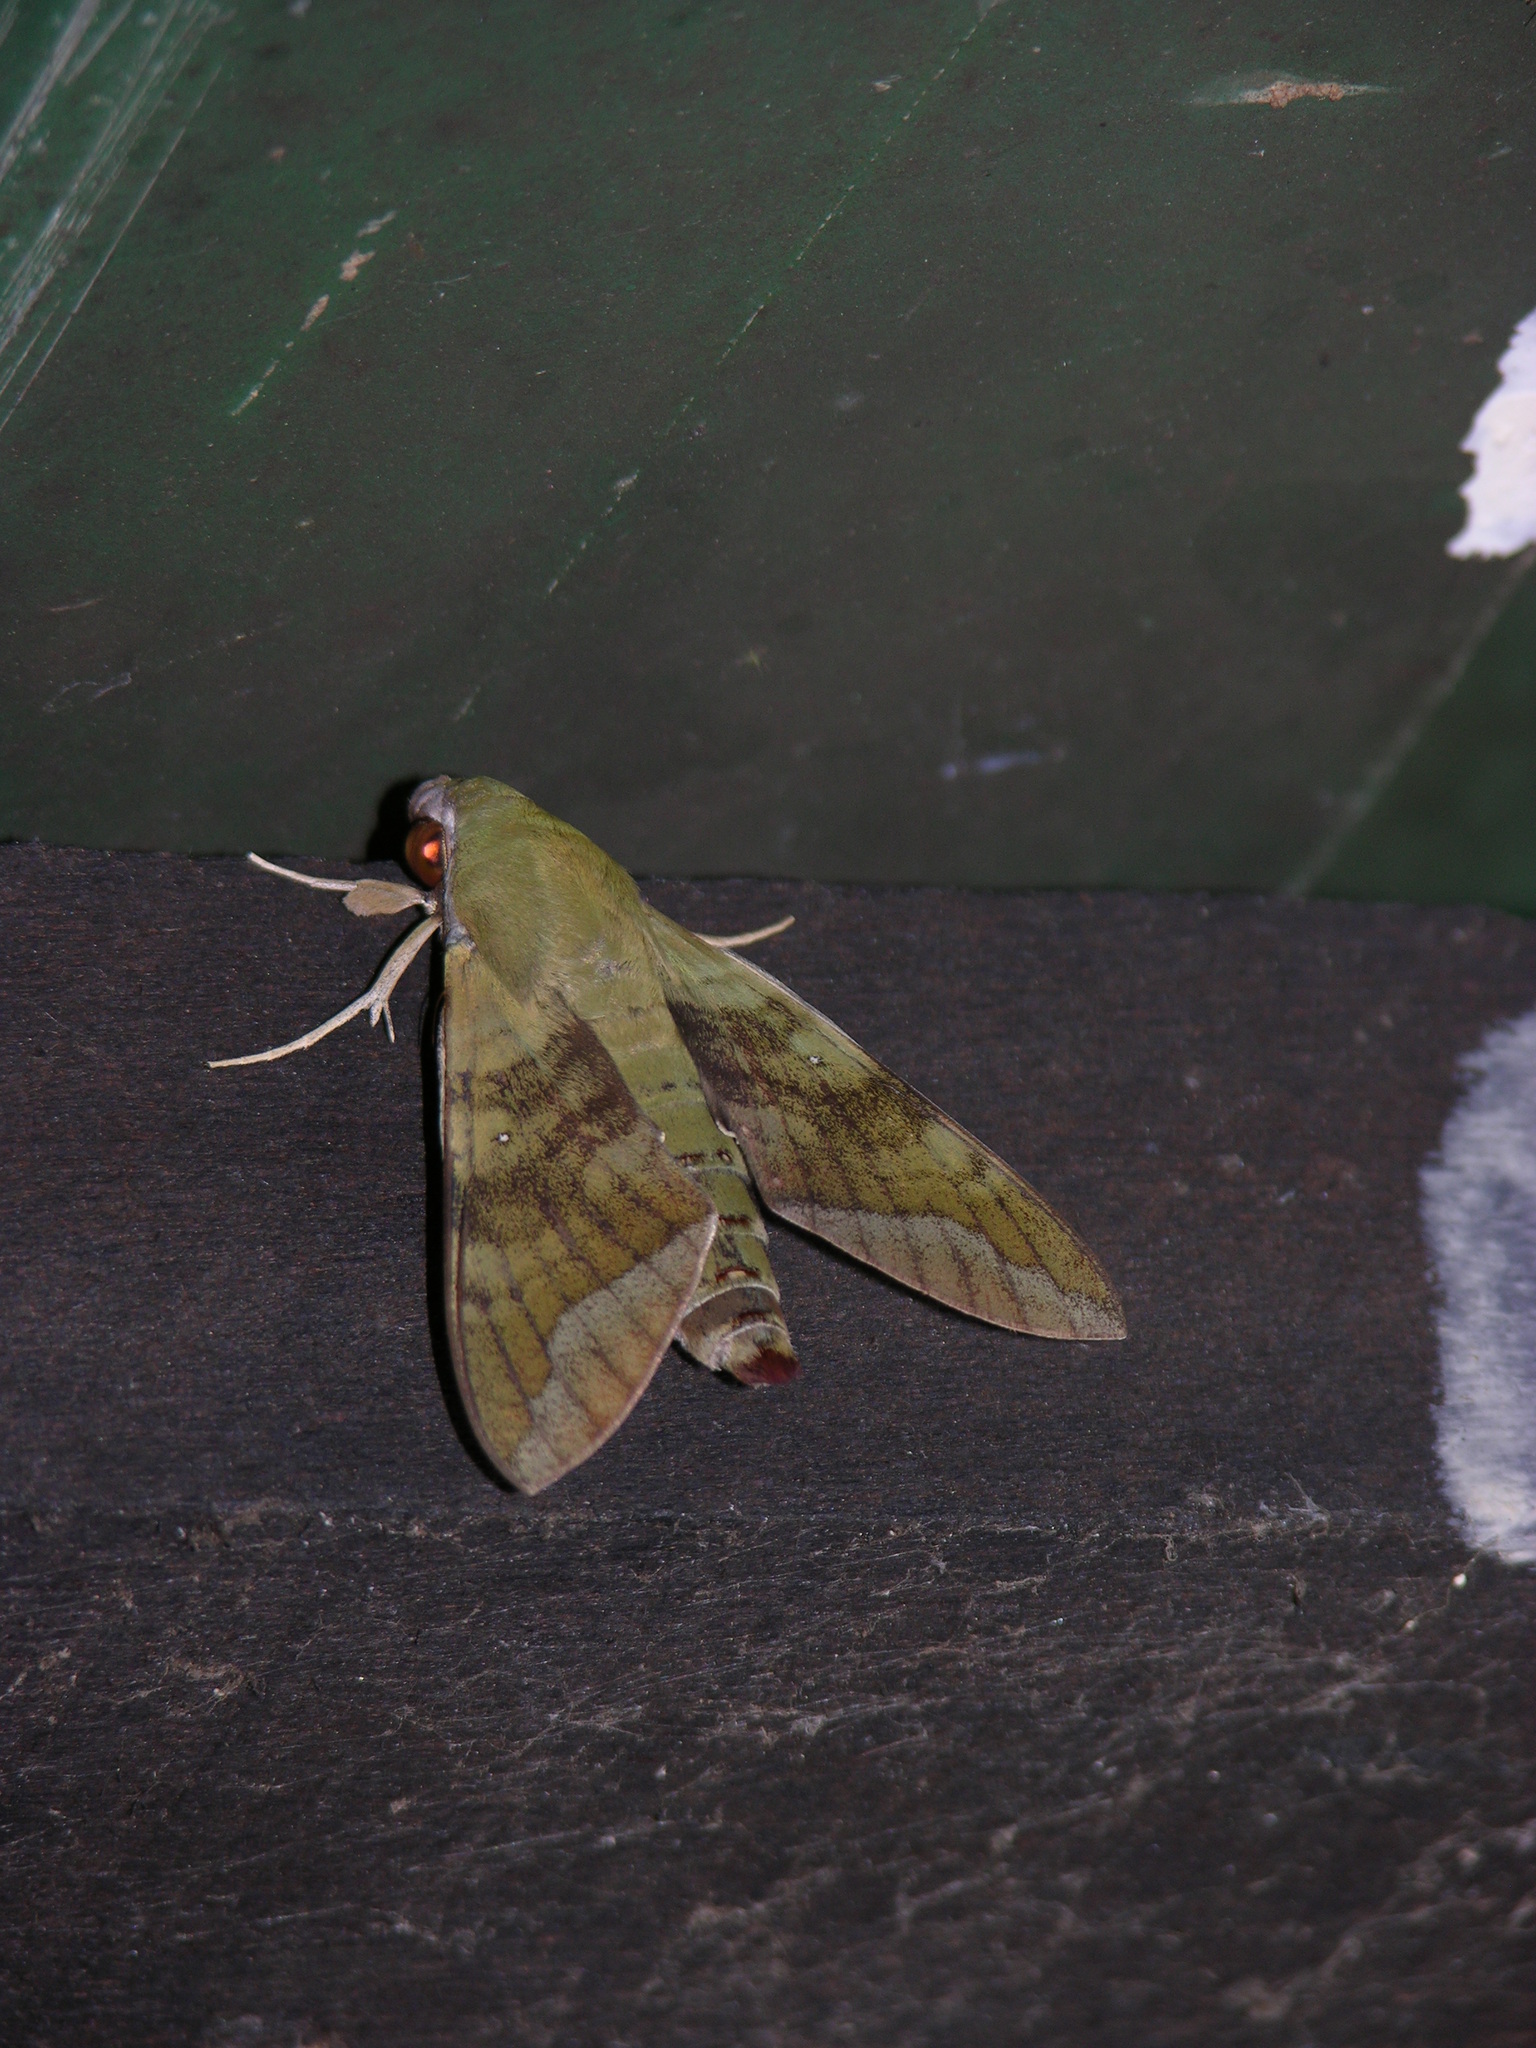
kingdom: Animalia
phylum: Arthropoda
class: Insecta
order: Lepidoptera
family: Sphingidae
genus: Nephele
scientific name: Nephele comma
